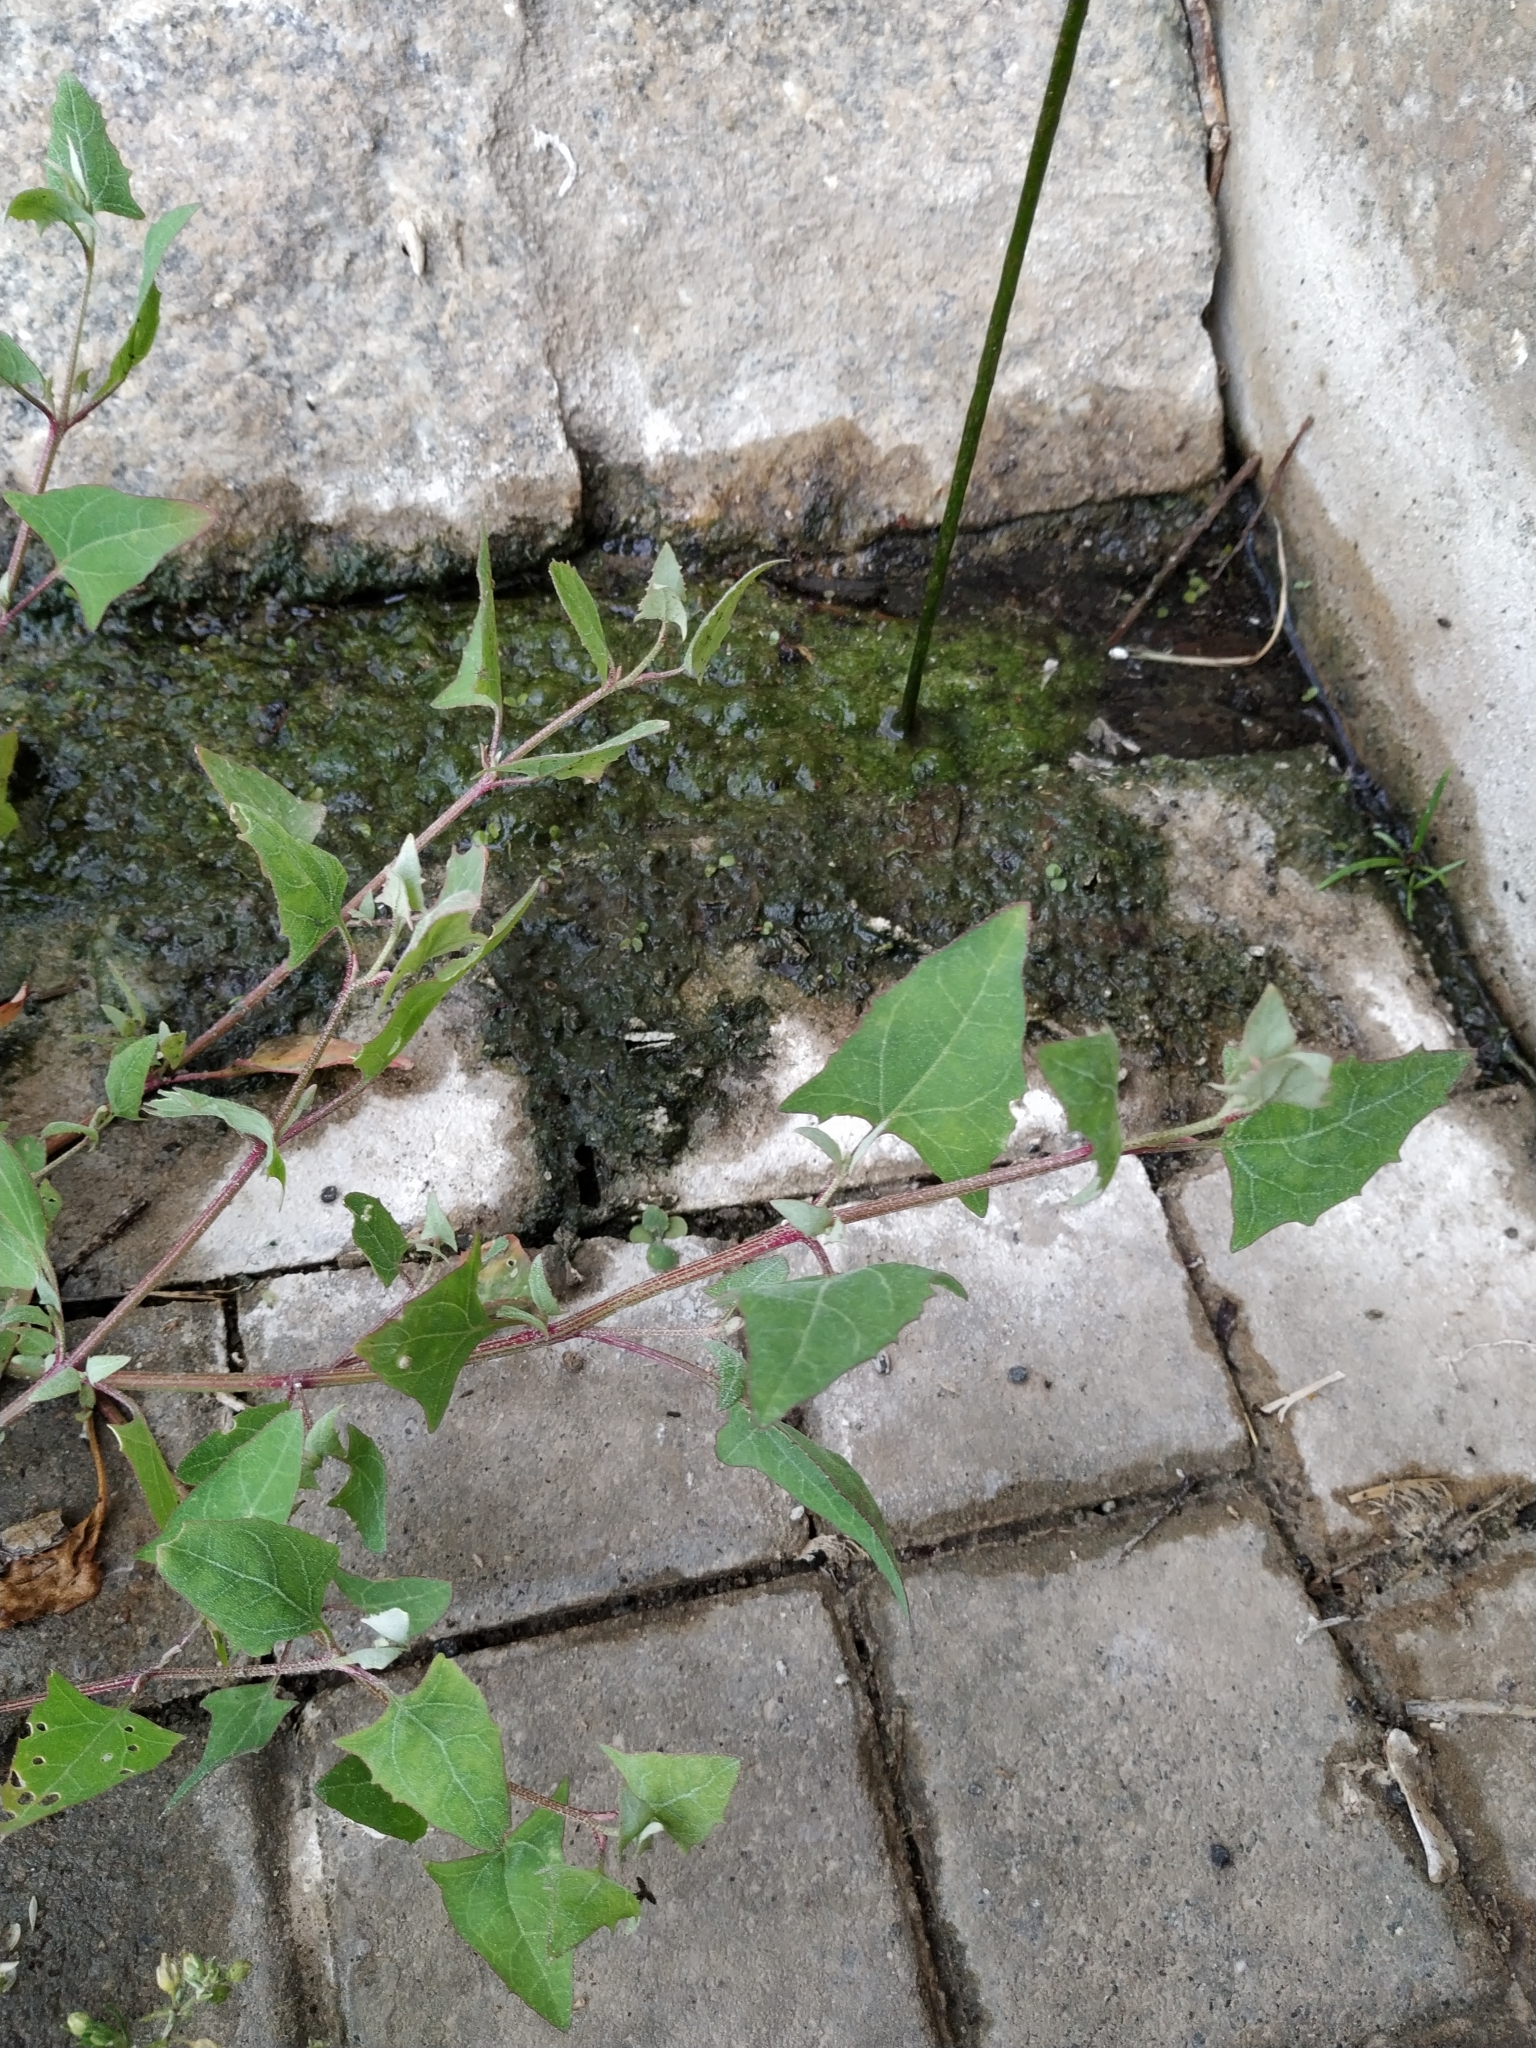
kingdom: Plantae
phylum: Tracheophyta
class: Magnoliopsida
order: Caryophyllales
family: Amaranthaceae
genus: Atriplex
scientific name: Atriplex prostrata
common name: Spear-leaved orache
